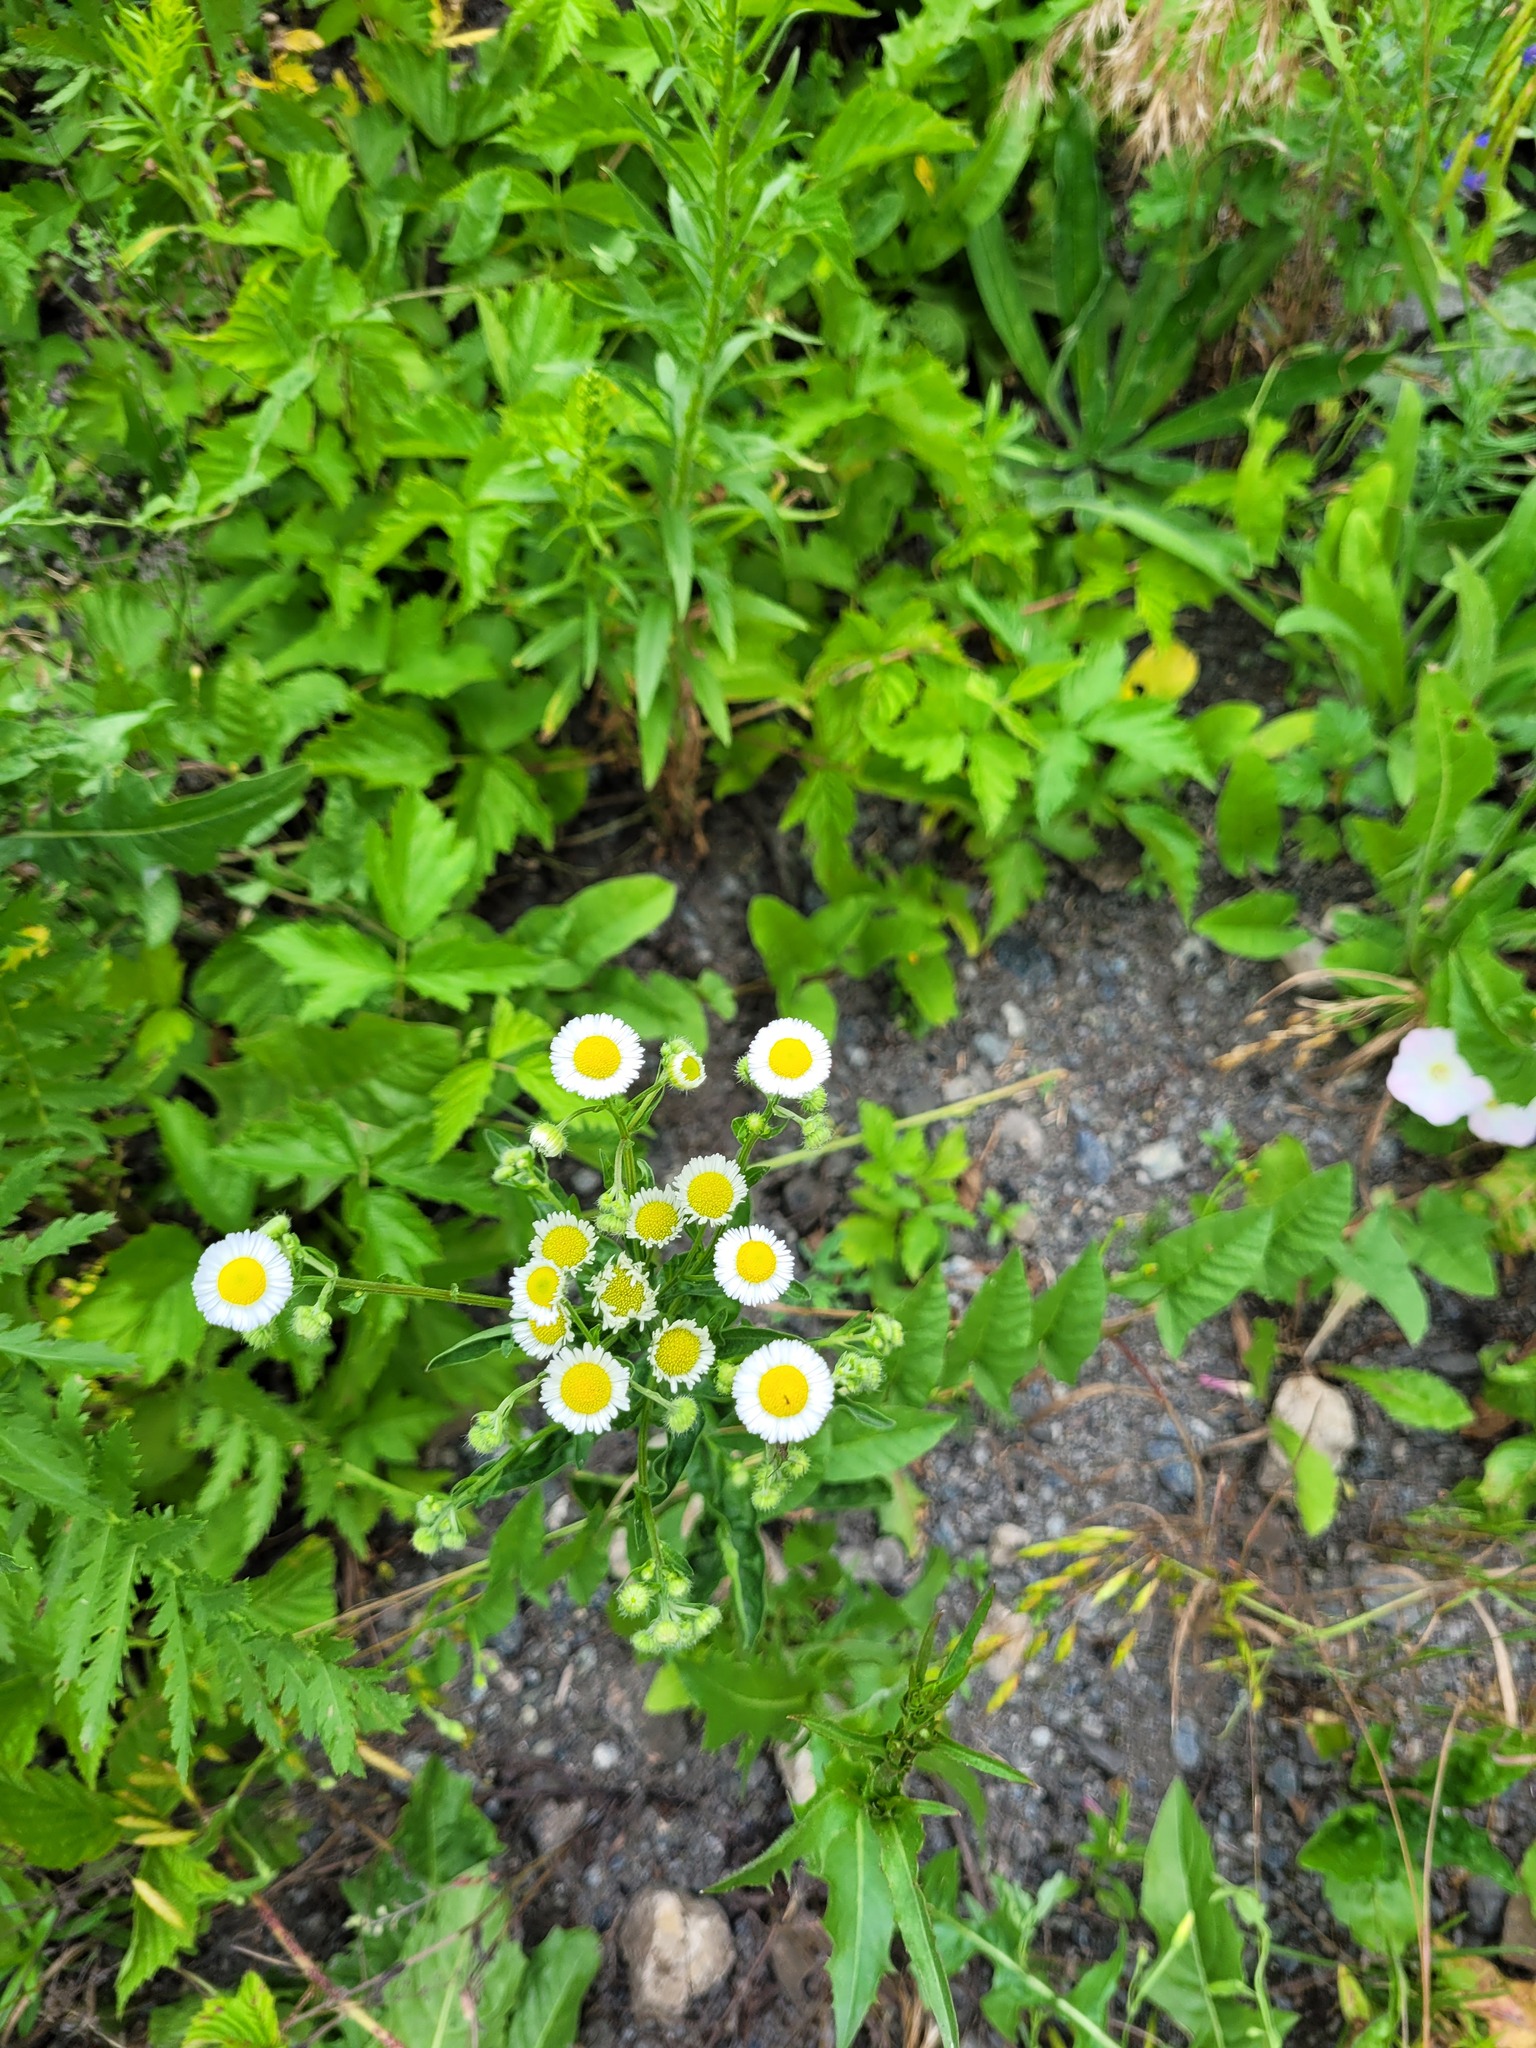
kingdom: Plantae
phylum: Tracheophyta
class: Magnoliopsida
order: Asterales
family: Asteraceae
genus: Erigeron
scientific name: Erigeron annuus
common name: Tall fleabane
